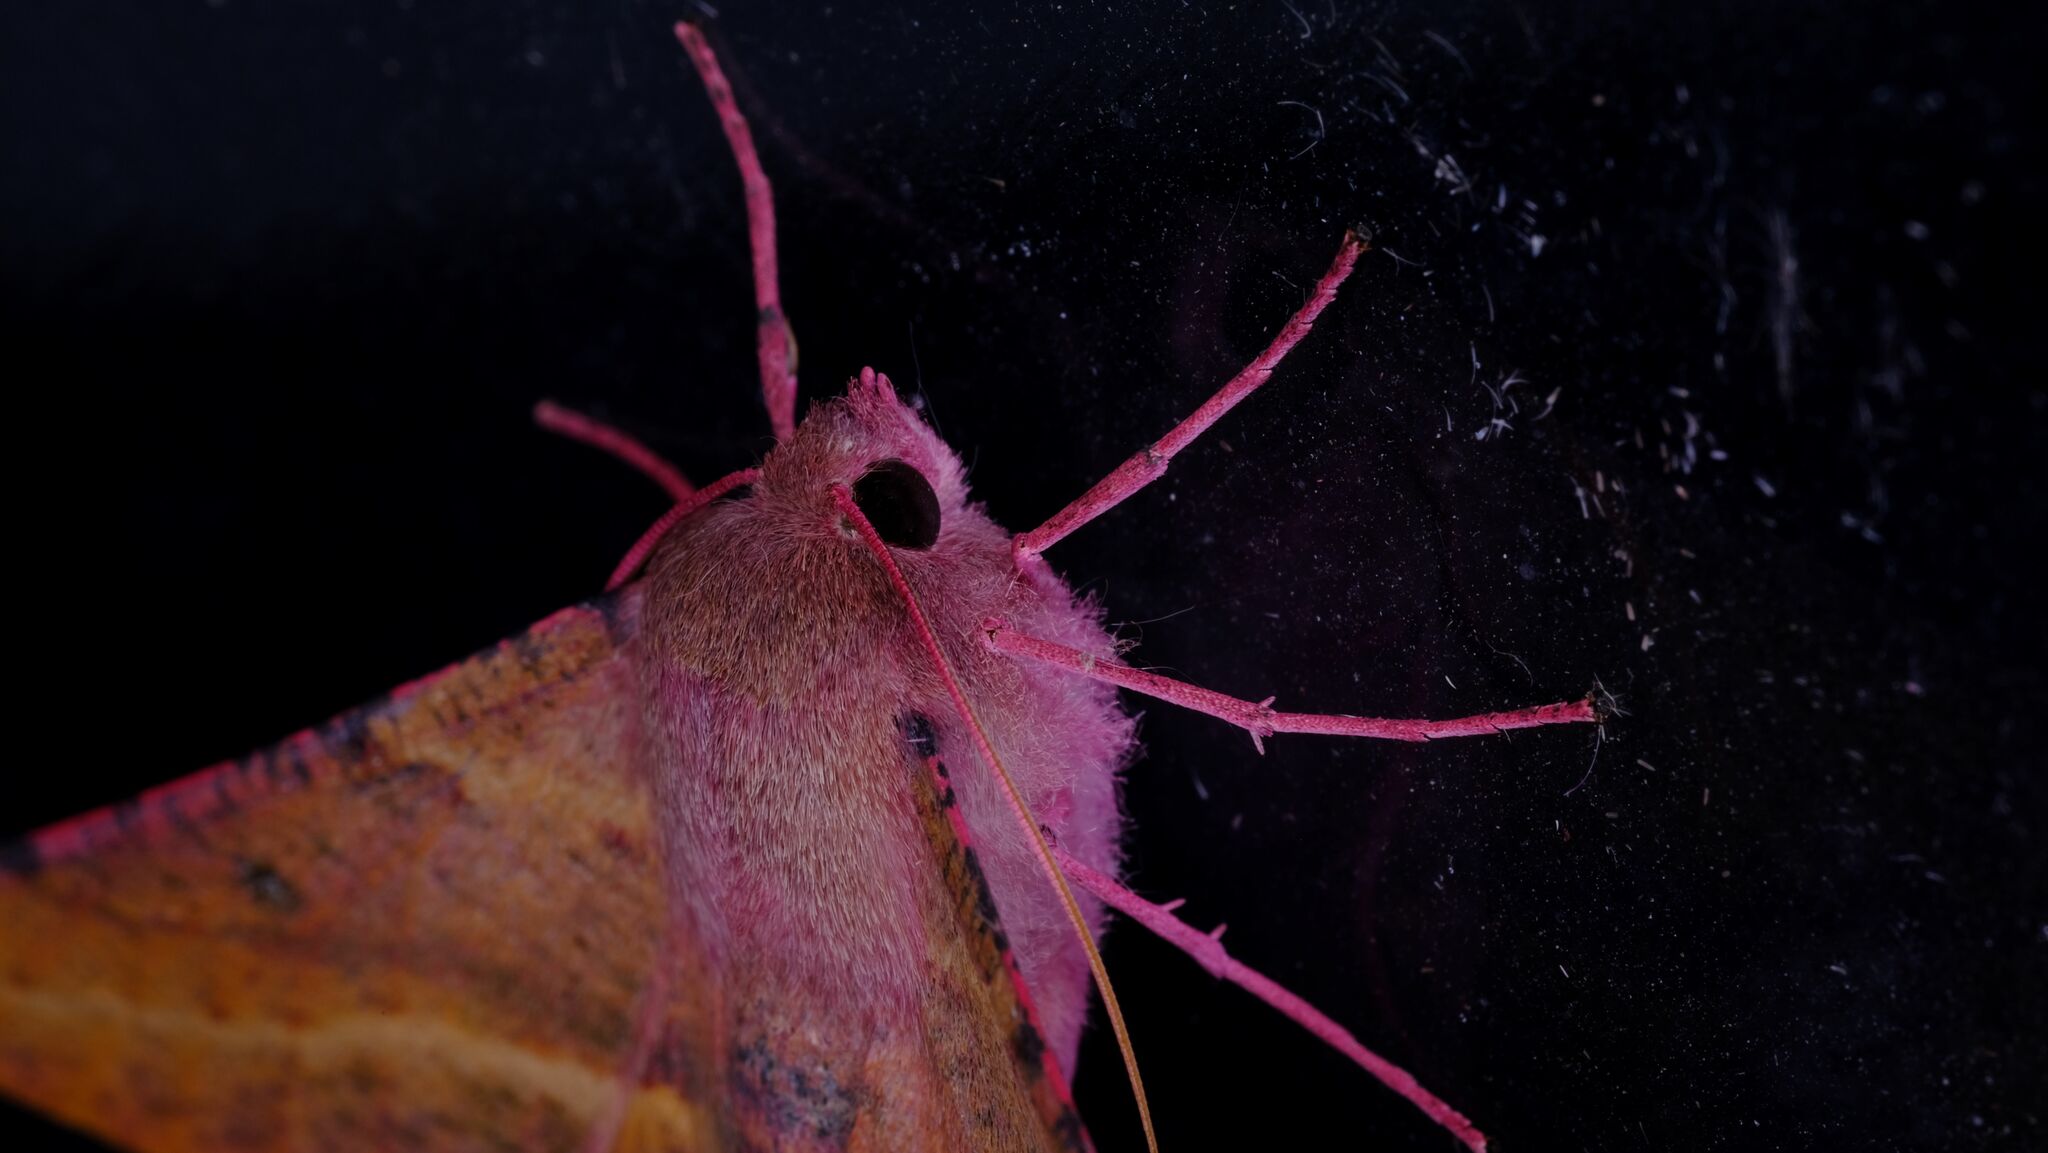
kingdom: Animalia
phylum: Arthropoda
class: Insecta
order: Lepidoptera
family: Geometridae
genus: Oenochroma
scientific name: Oenochroma vinaria
